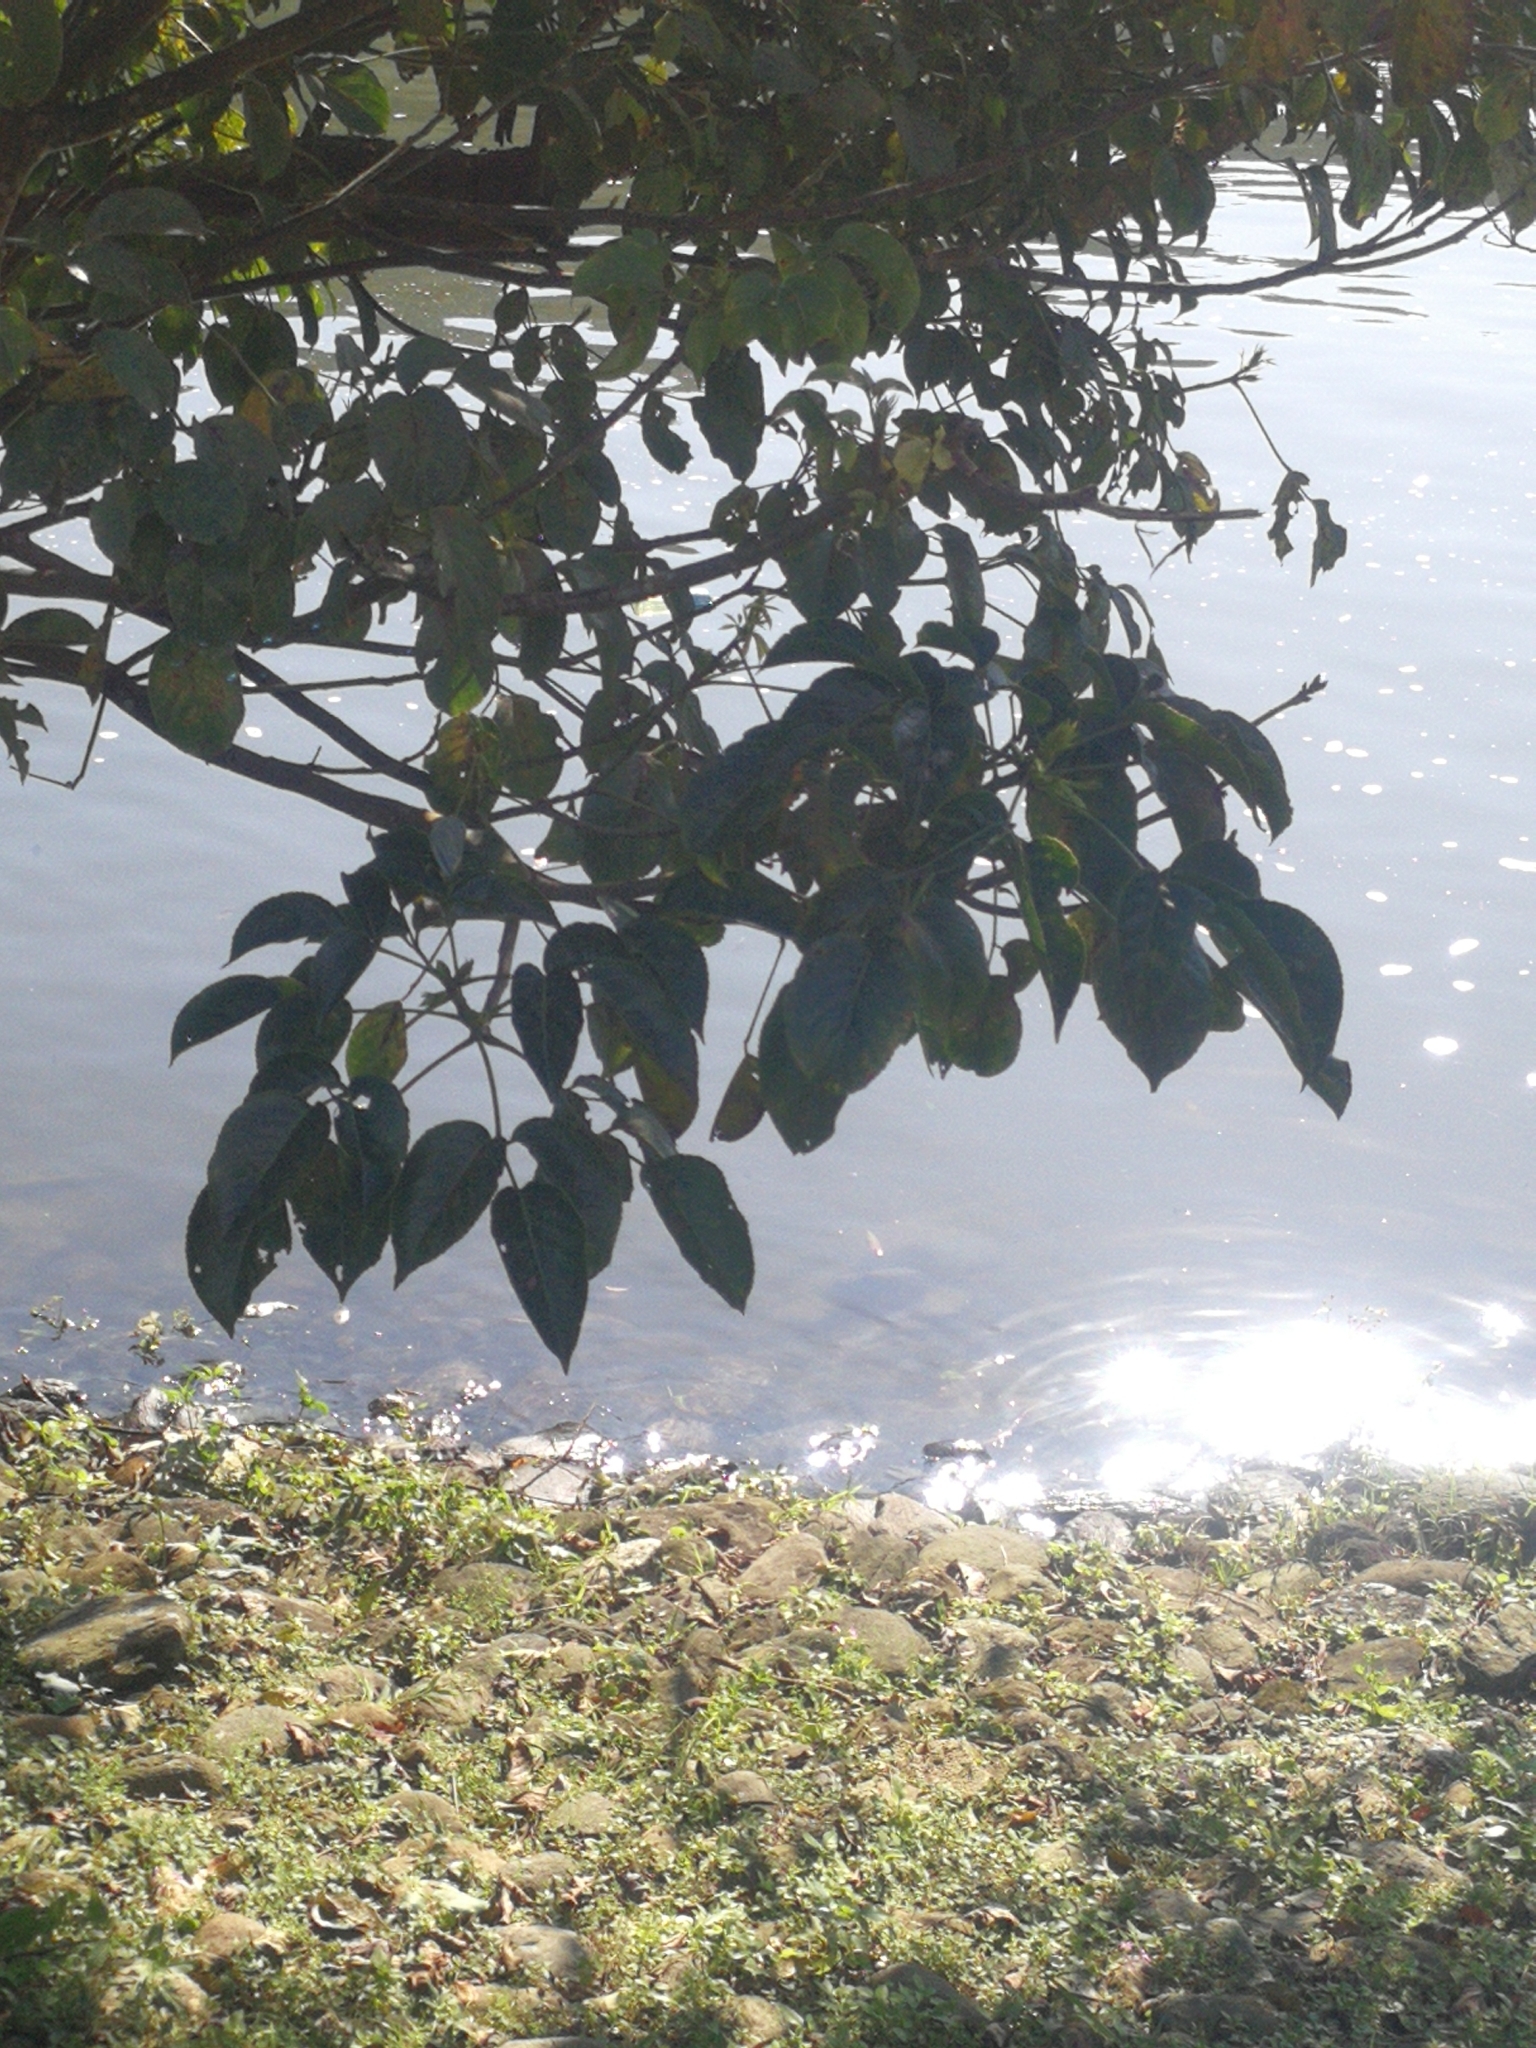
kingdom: Plantae
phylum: Tracheophyta
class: Magnoliopsida
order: Malpighiales
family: Phyllanthaceae
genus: Bischofia
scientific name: Bischofia javanica
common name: Javanese bishopwood
